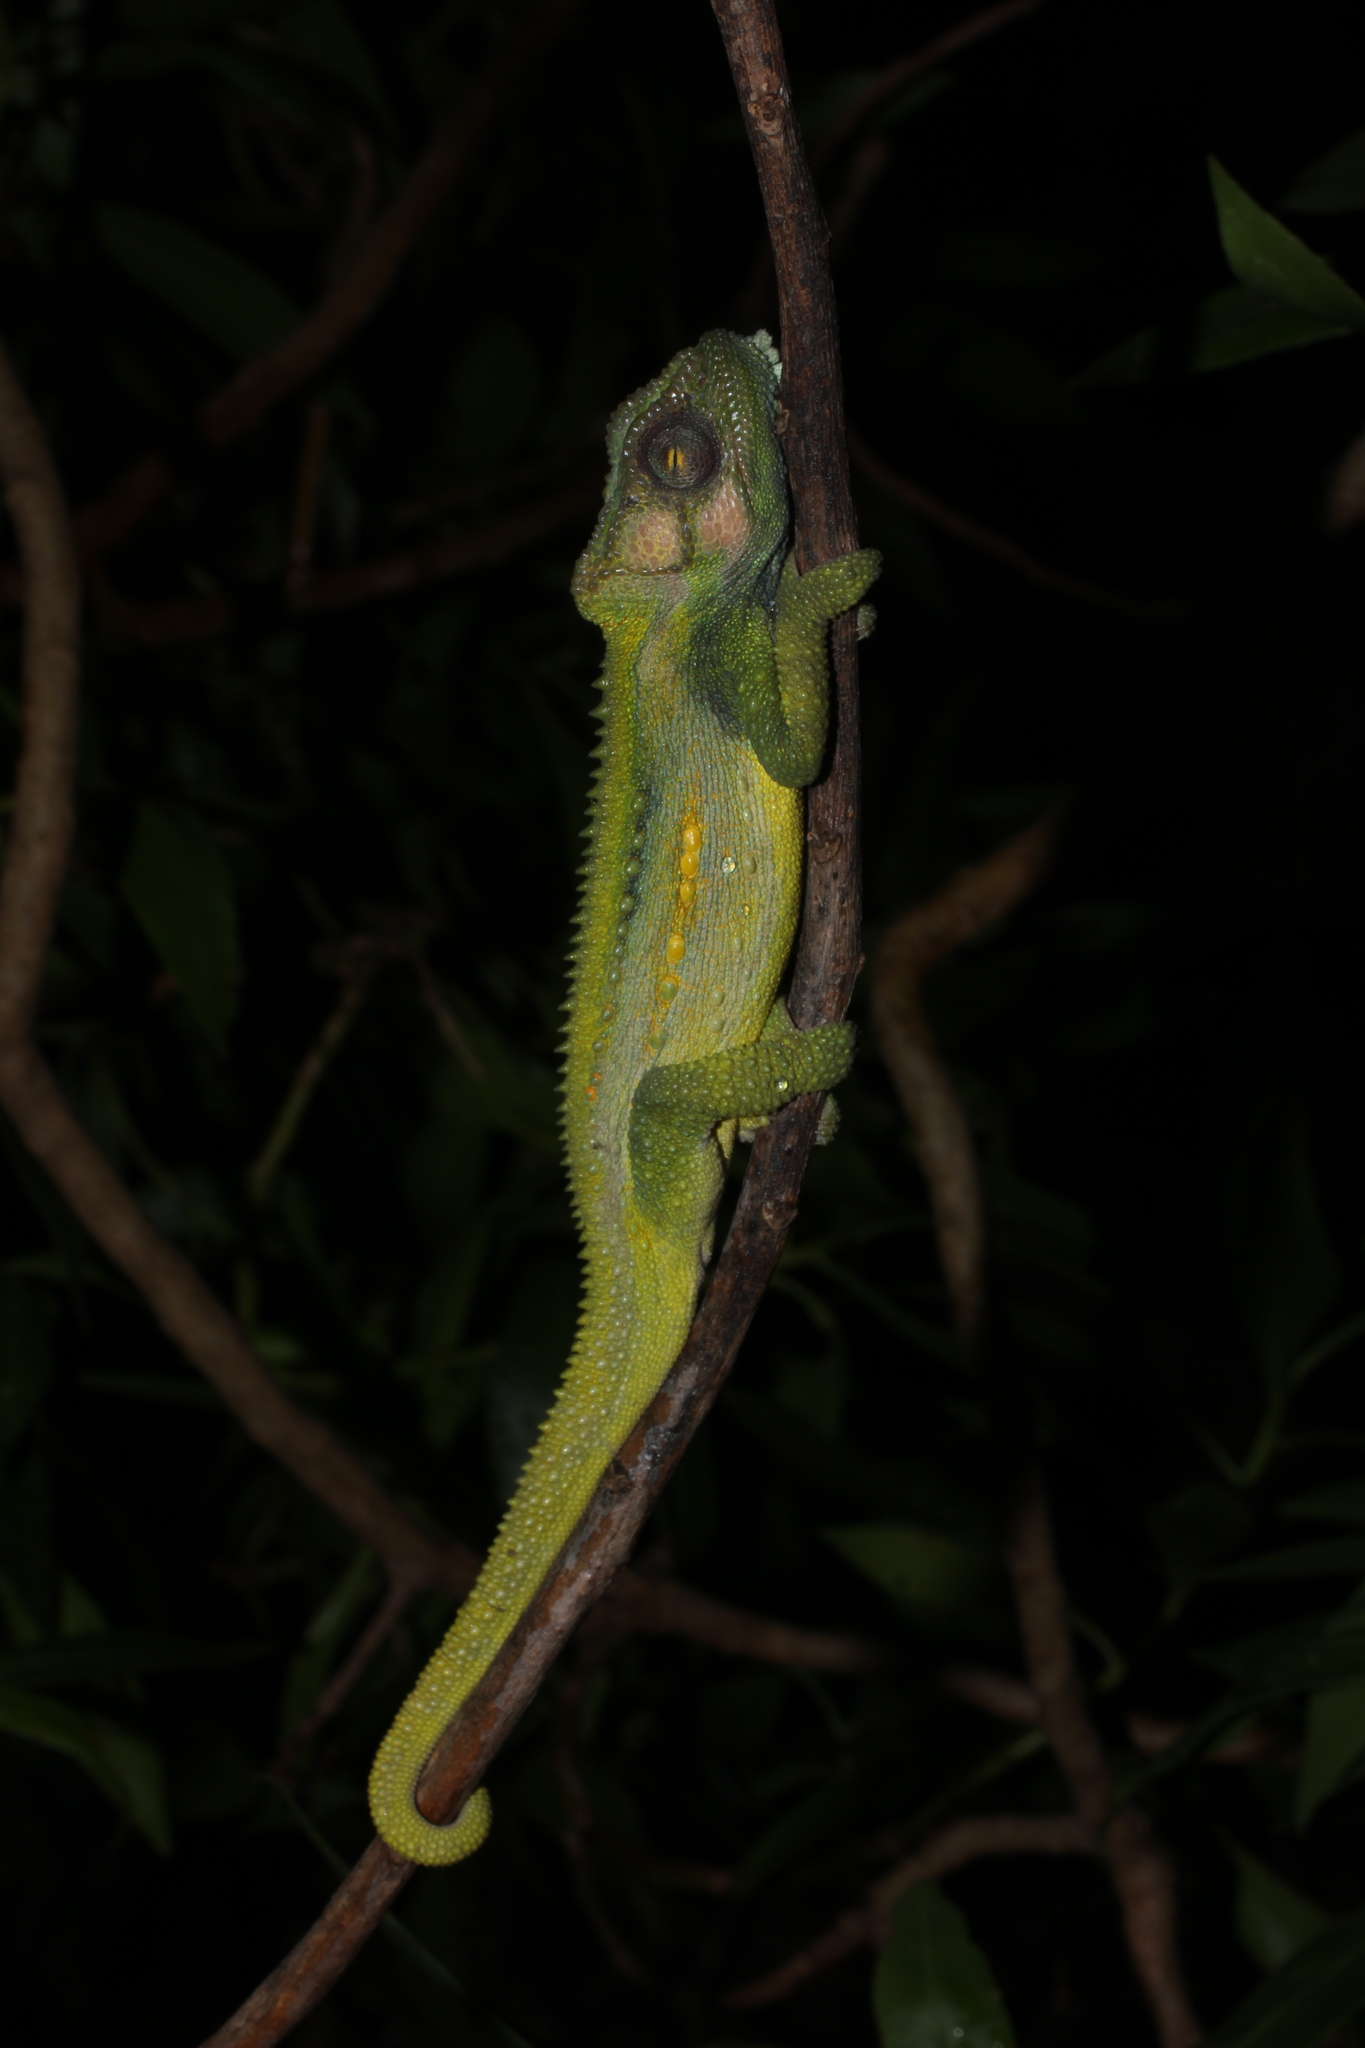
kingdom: Animalia
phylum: Chordata
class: Squamata
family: Chamaeleonidae
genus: Bradypodion
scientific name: Bradypodion pumilum
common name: Cape dwarf chameleon
